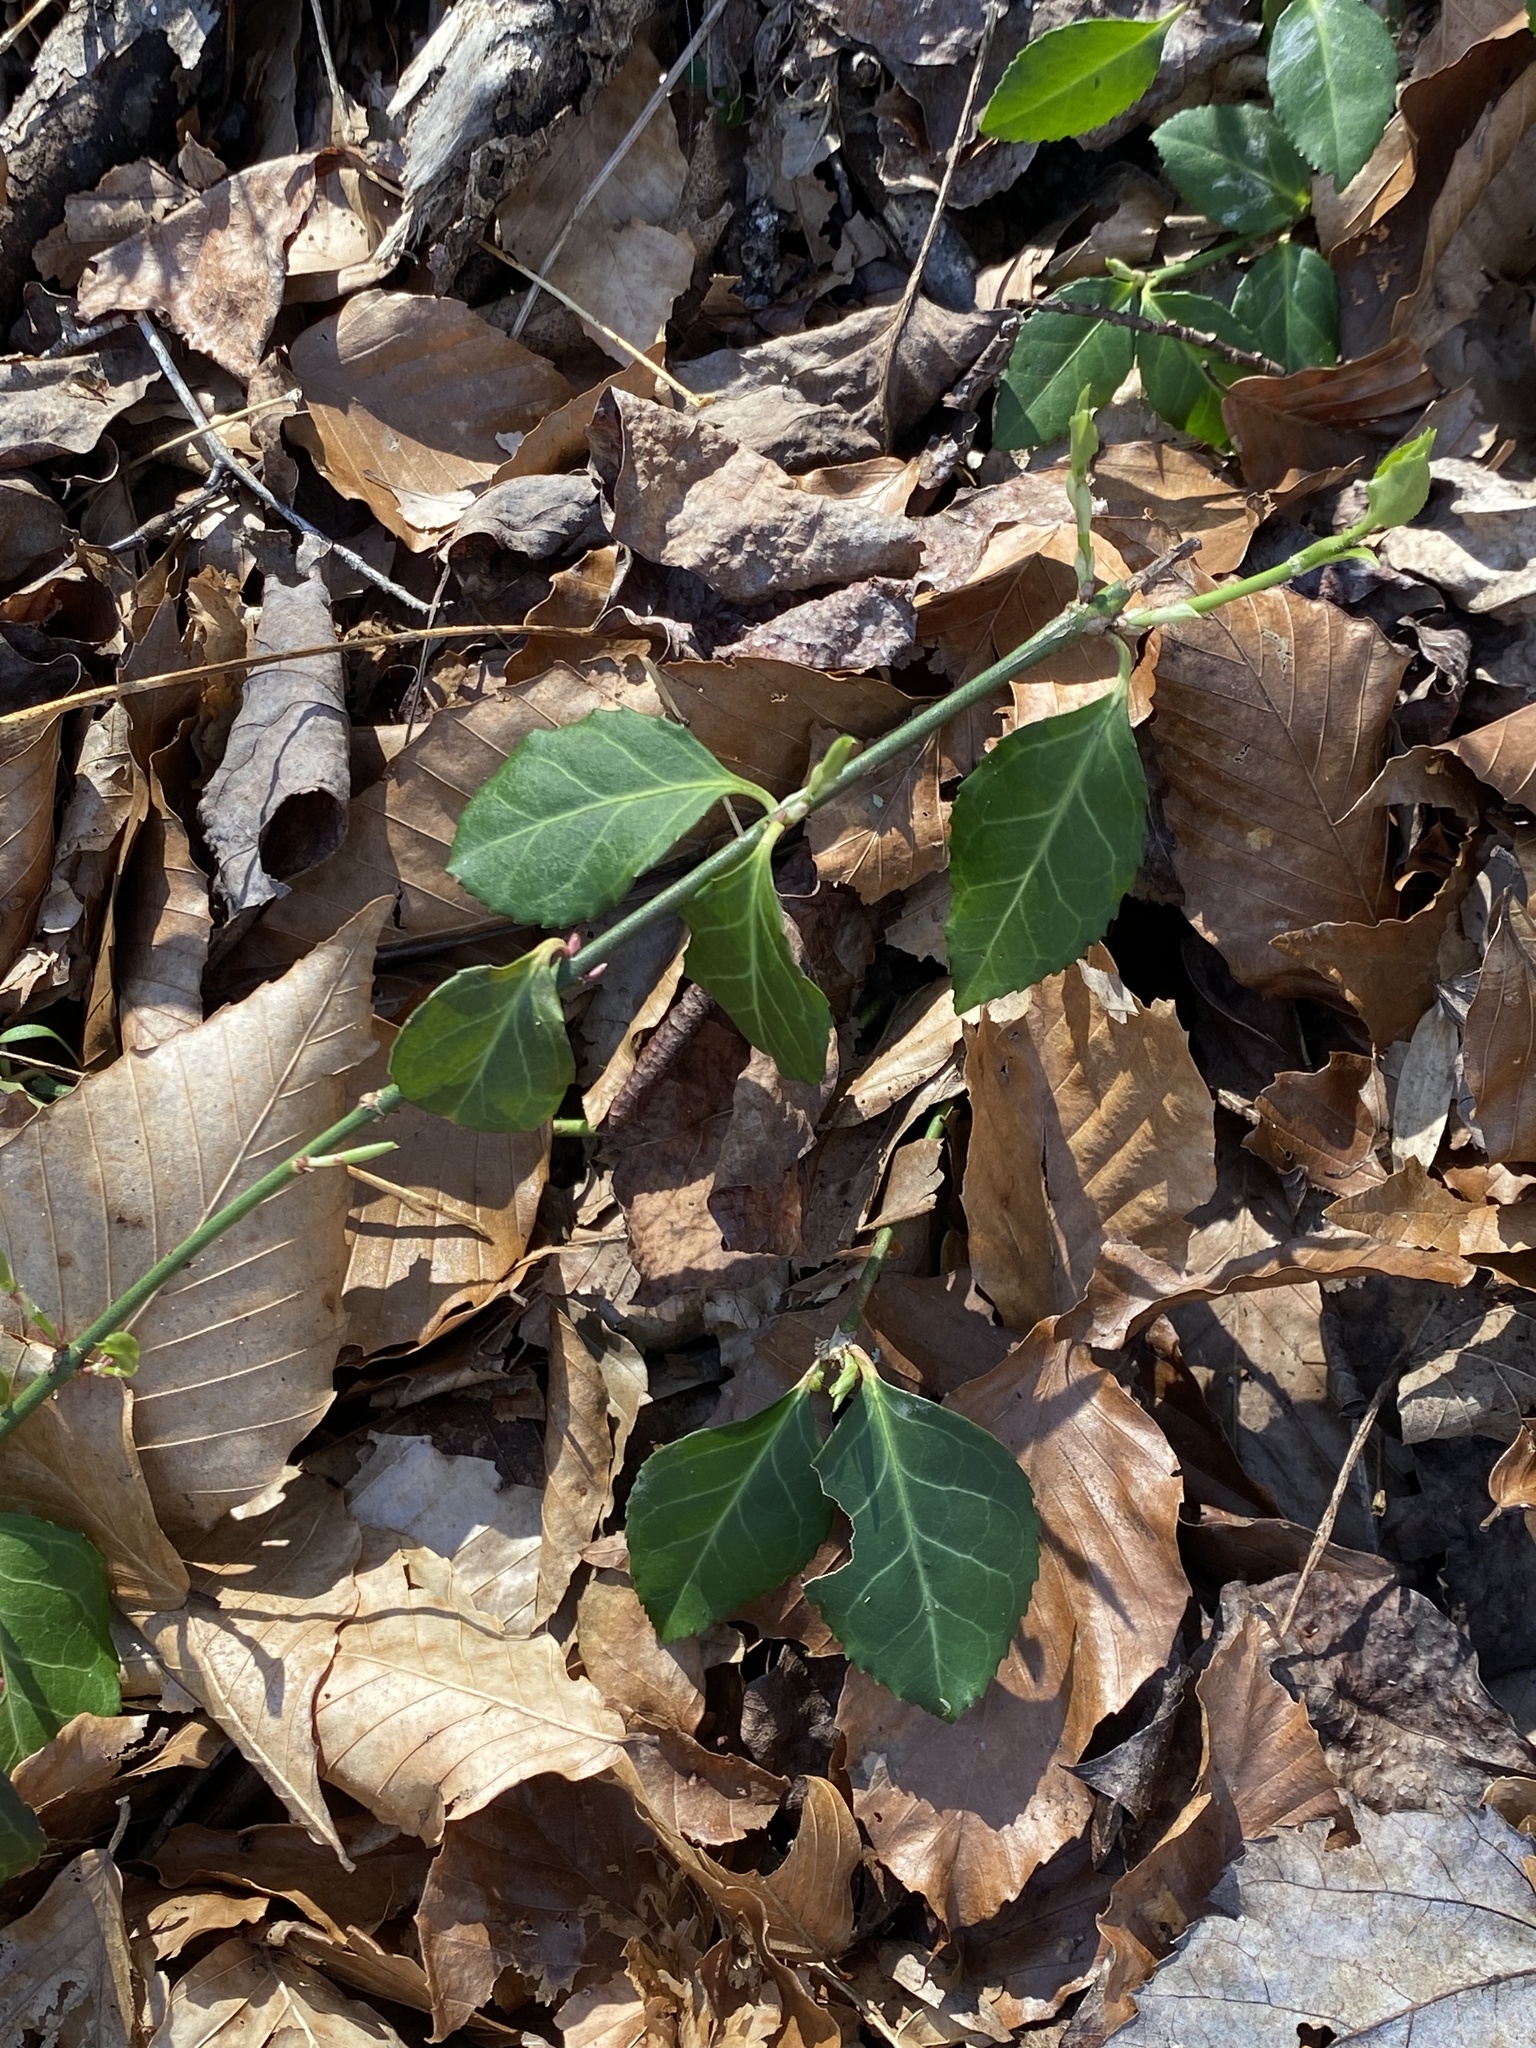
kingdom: Plantae
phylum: Tracheophyta
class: Magnoliopsida
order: Celastrales
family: Celastraceae
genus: Euonymus
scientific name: Euonymus fortunei
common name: Climbing euonymus
